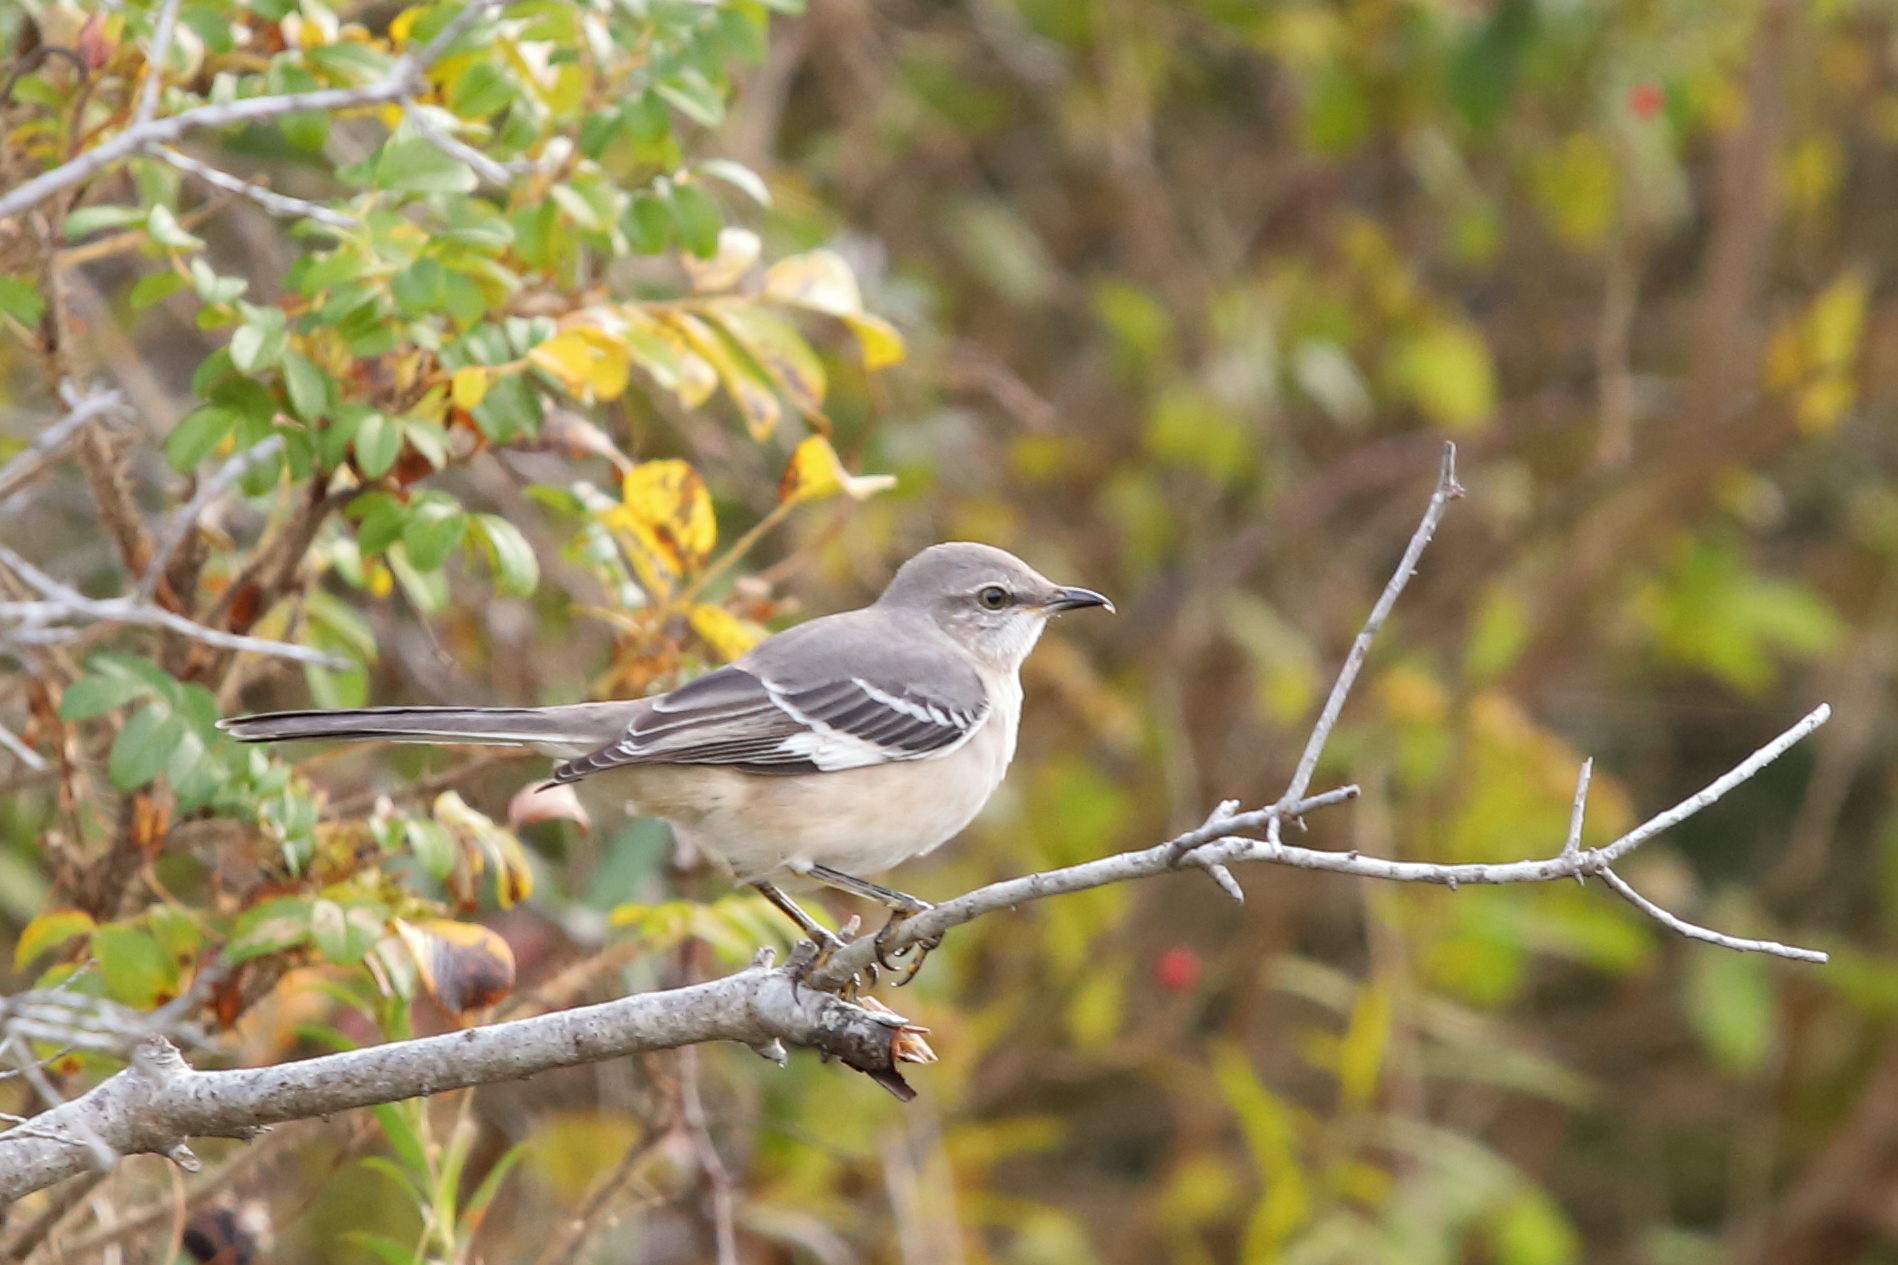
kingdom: Animalia
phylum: Chordata
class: Aves
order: Passeriformes
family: Mimidae
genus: Mimus
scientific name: Mimus polyglottos
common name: Northern mockingbird
